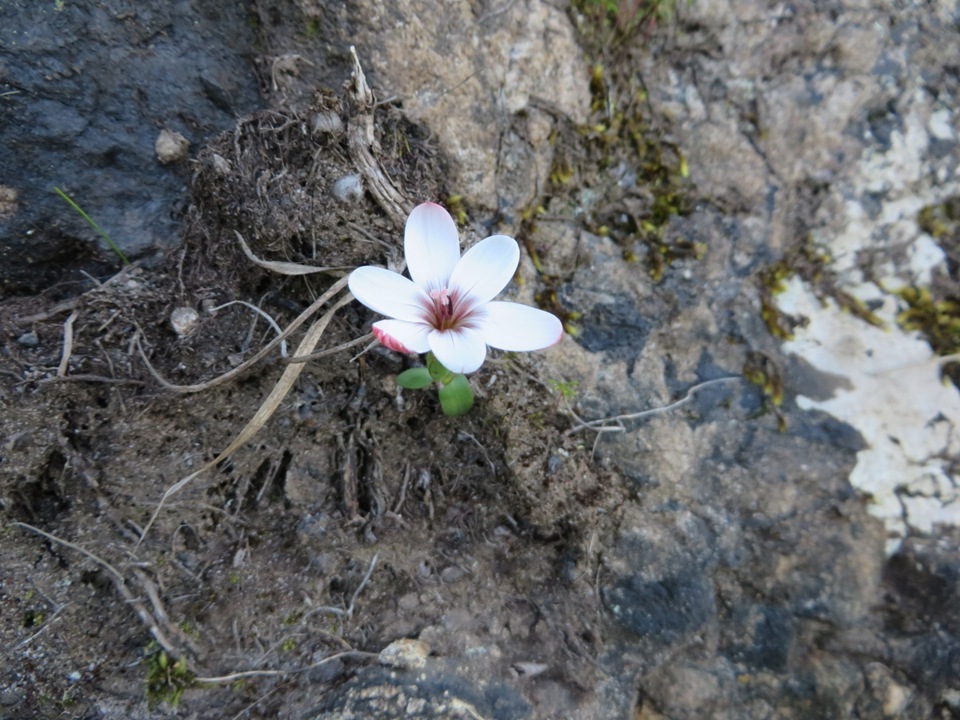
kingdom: Plantae
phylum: Tracheophyta
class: Liliopsida
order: Asparagales
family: Iridaceae
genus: Geissorhiza
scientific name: Geissorhiza ovata
